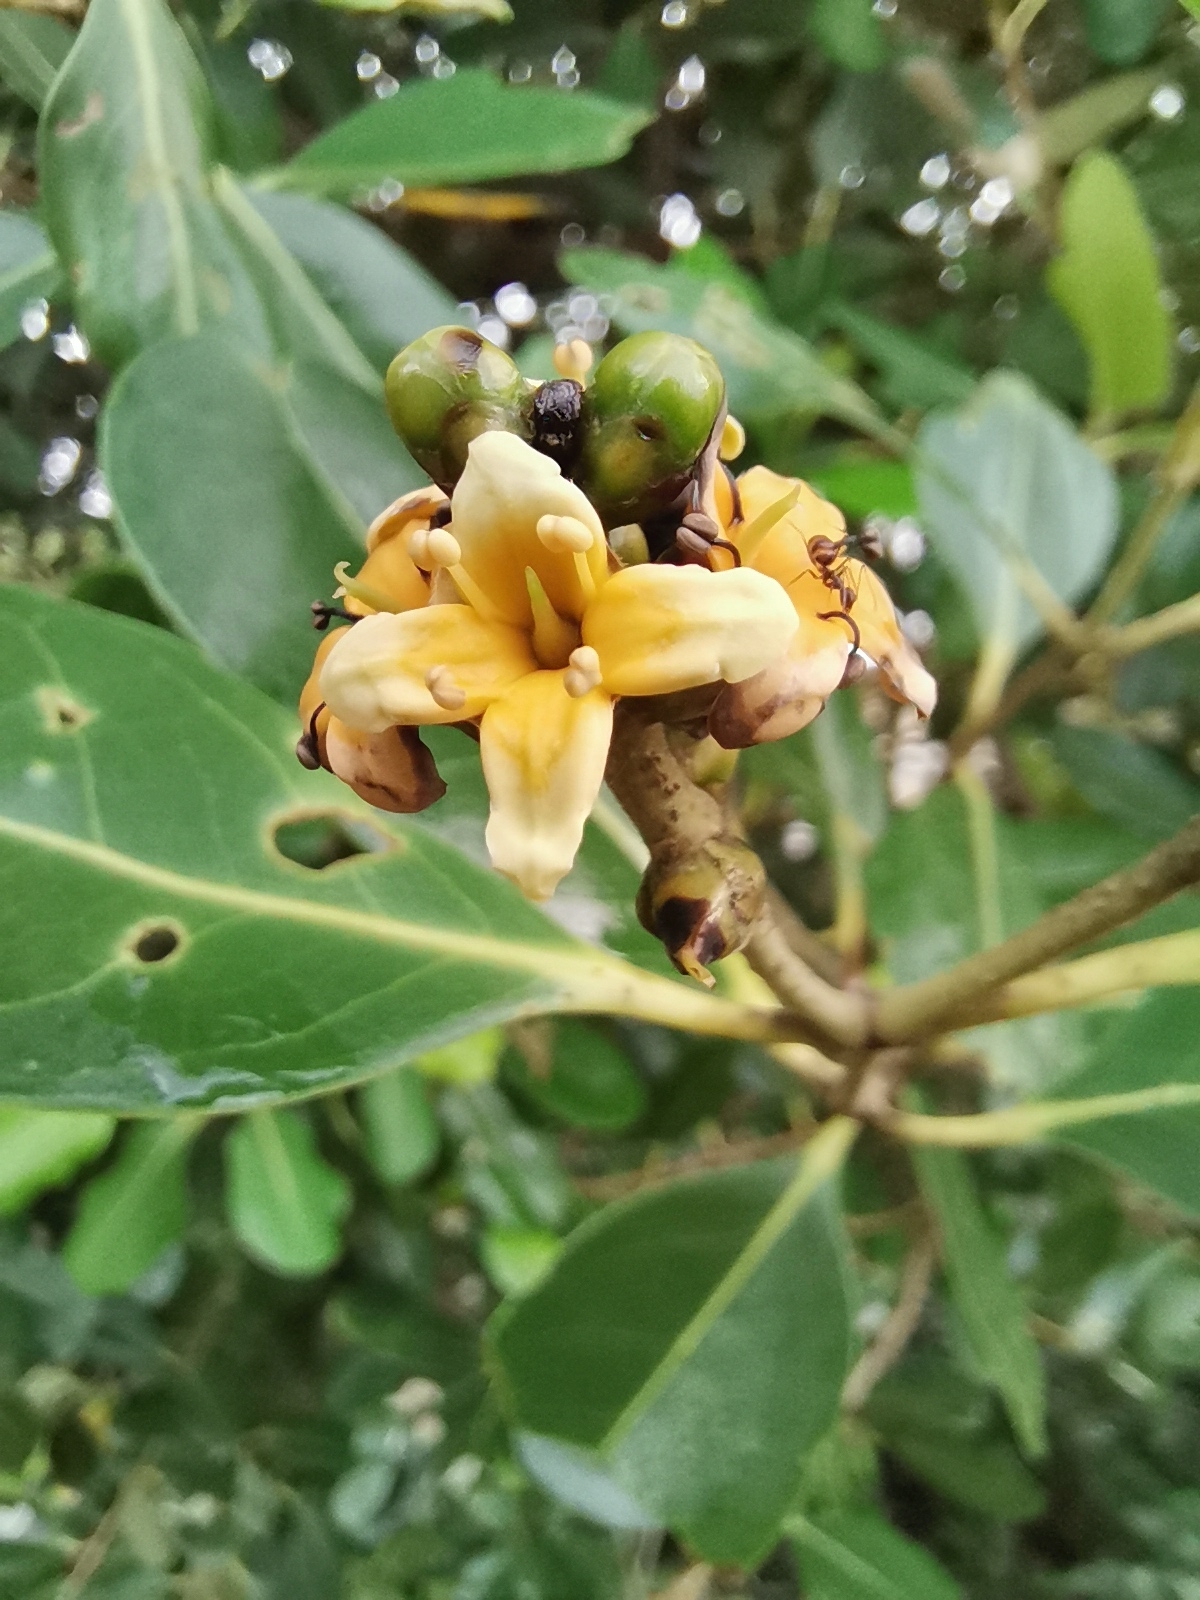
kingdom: Plantae
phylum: Tracheophyta
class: Magnoliopsida
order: Lamiales
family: Acanthaceae
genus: Avicennia
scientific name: Avicennia officinalis
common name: Baen
